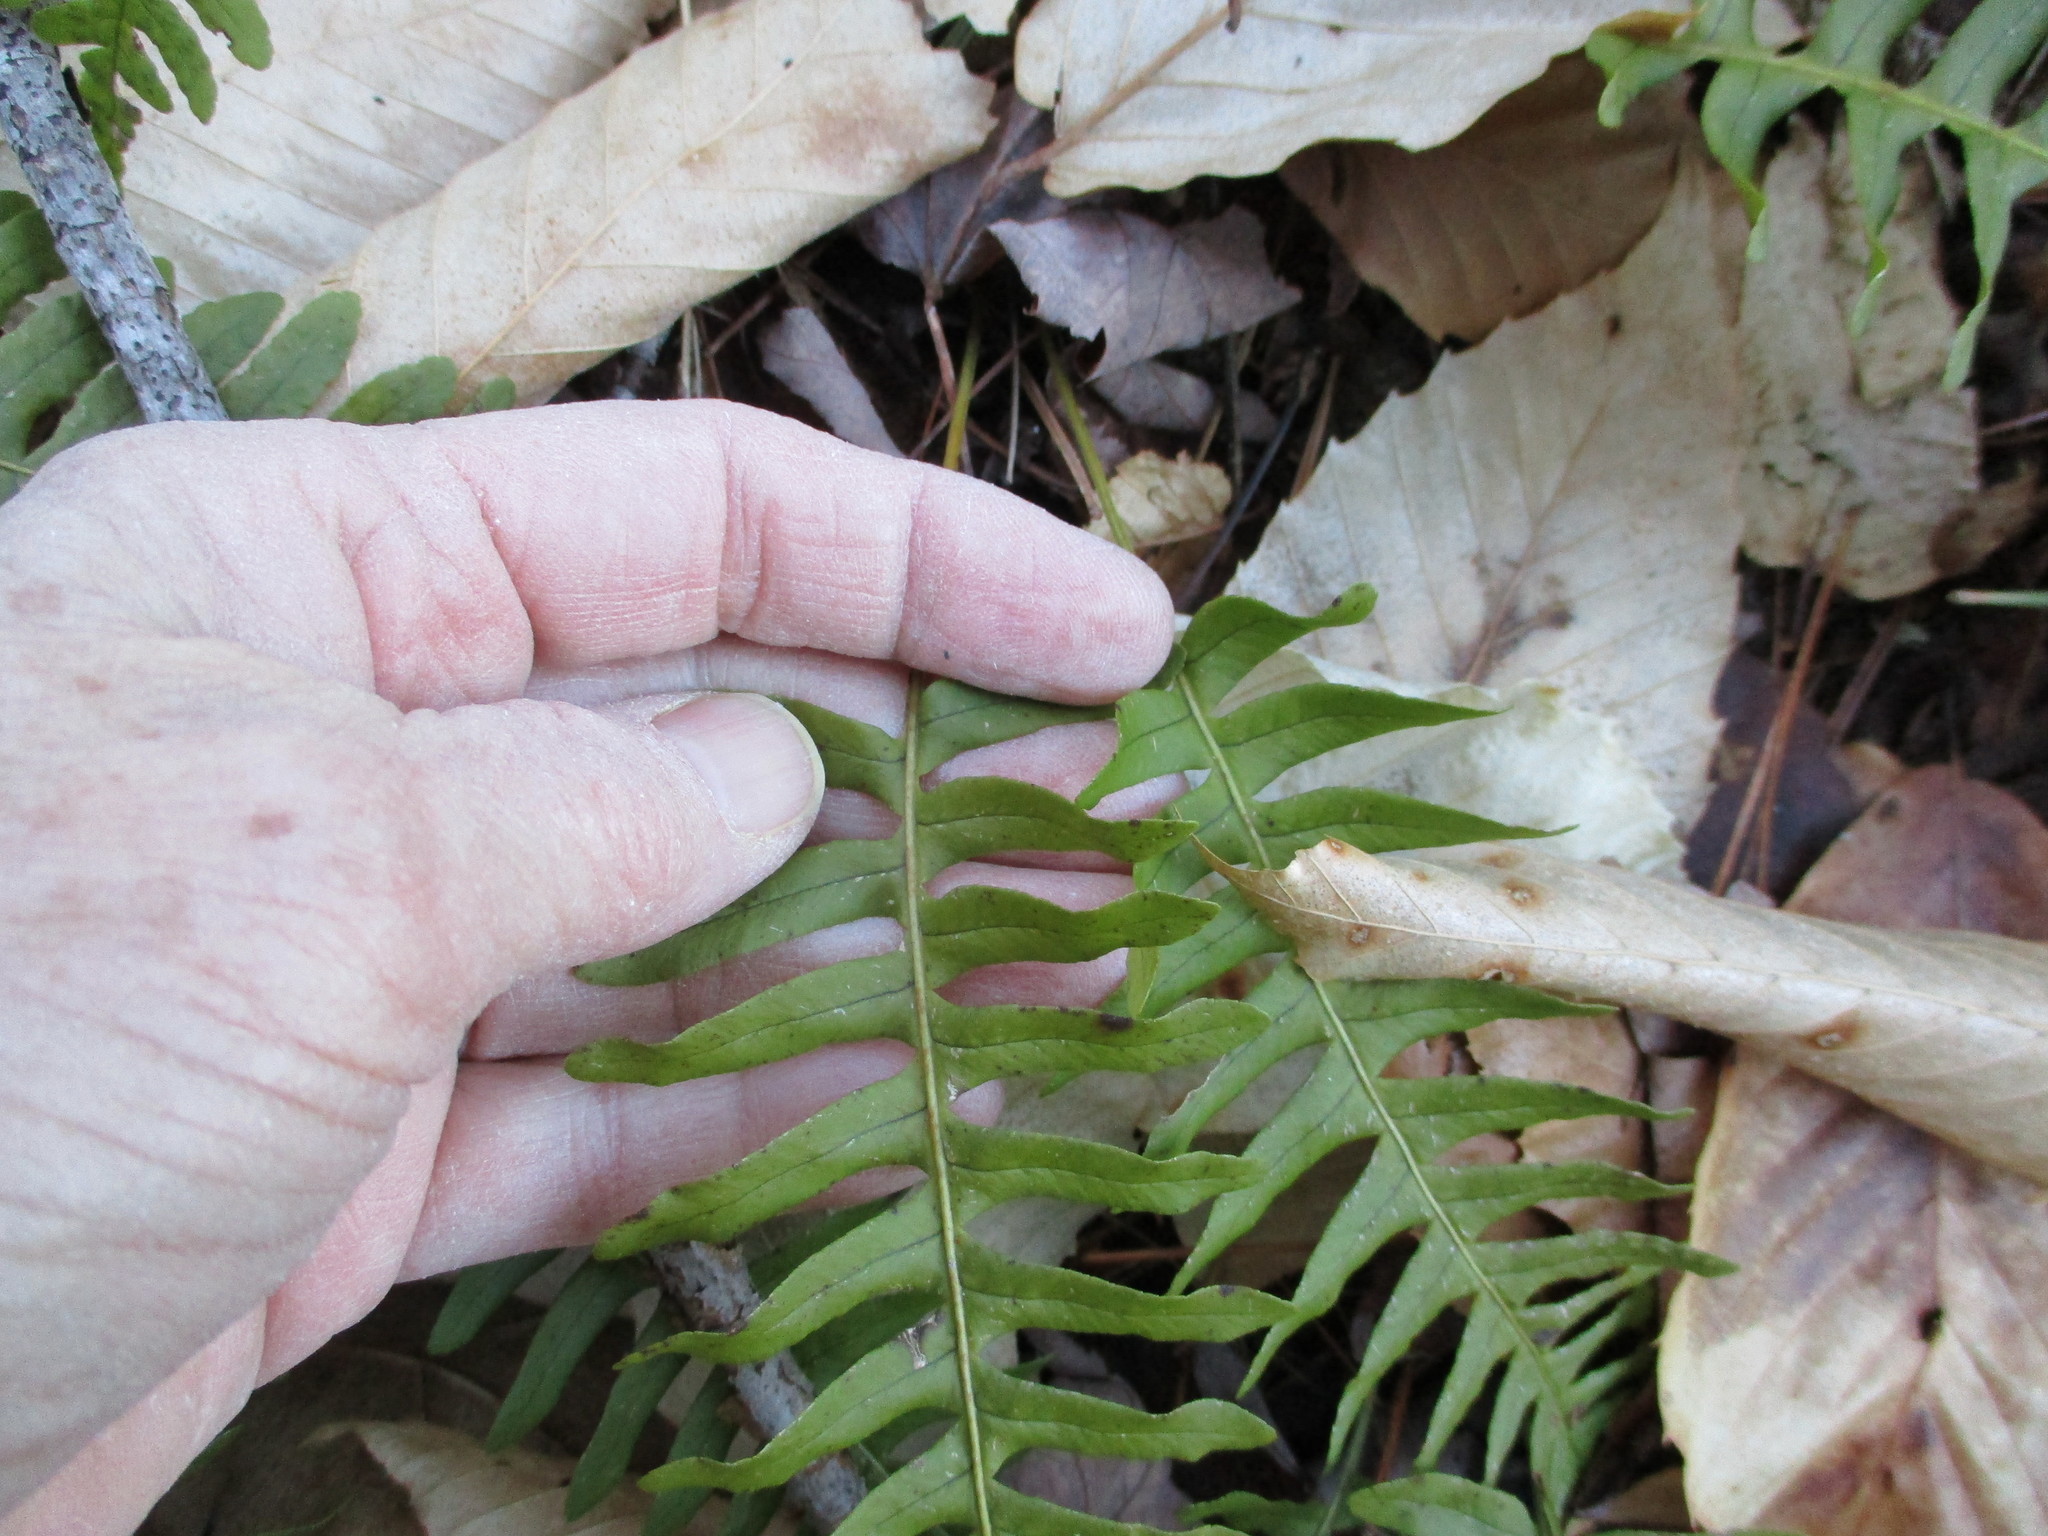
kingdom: Plantae
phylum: Tracheophyta
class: Polypodiopsida
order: Polypodiales
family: Polypodiaceae
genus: Polypodium
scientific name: Polypodium virginianum
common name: American wall fern
